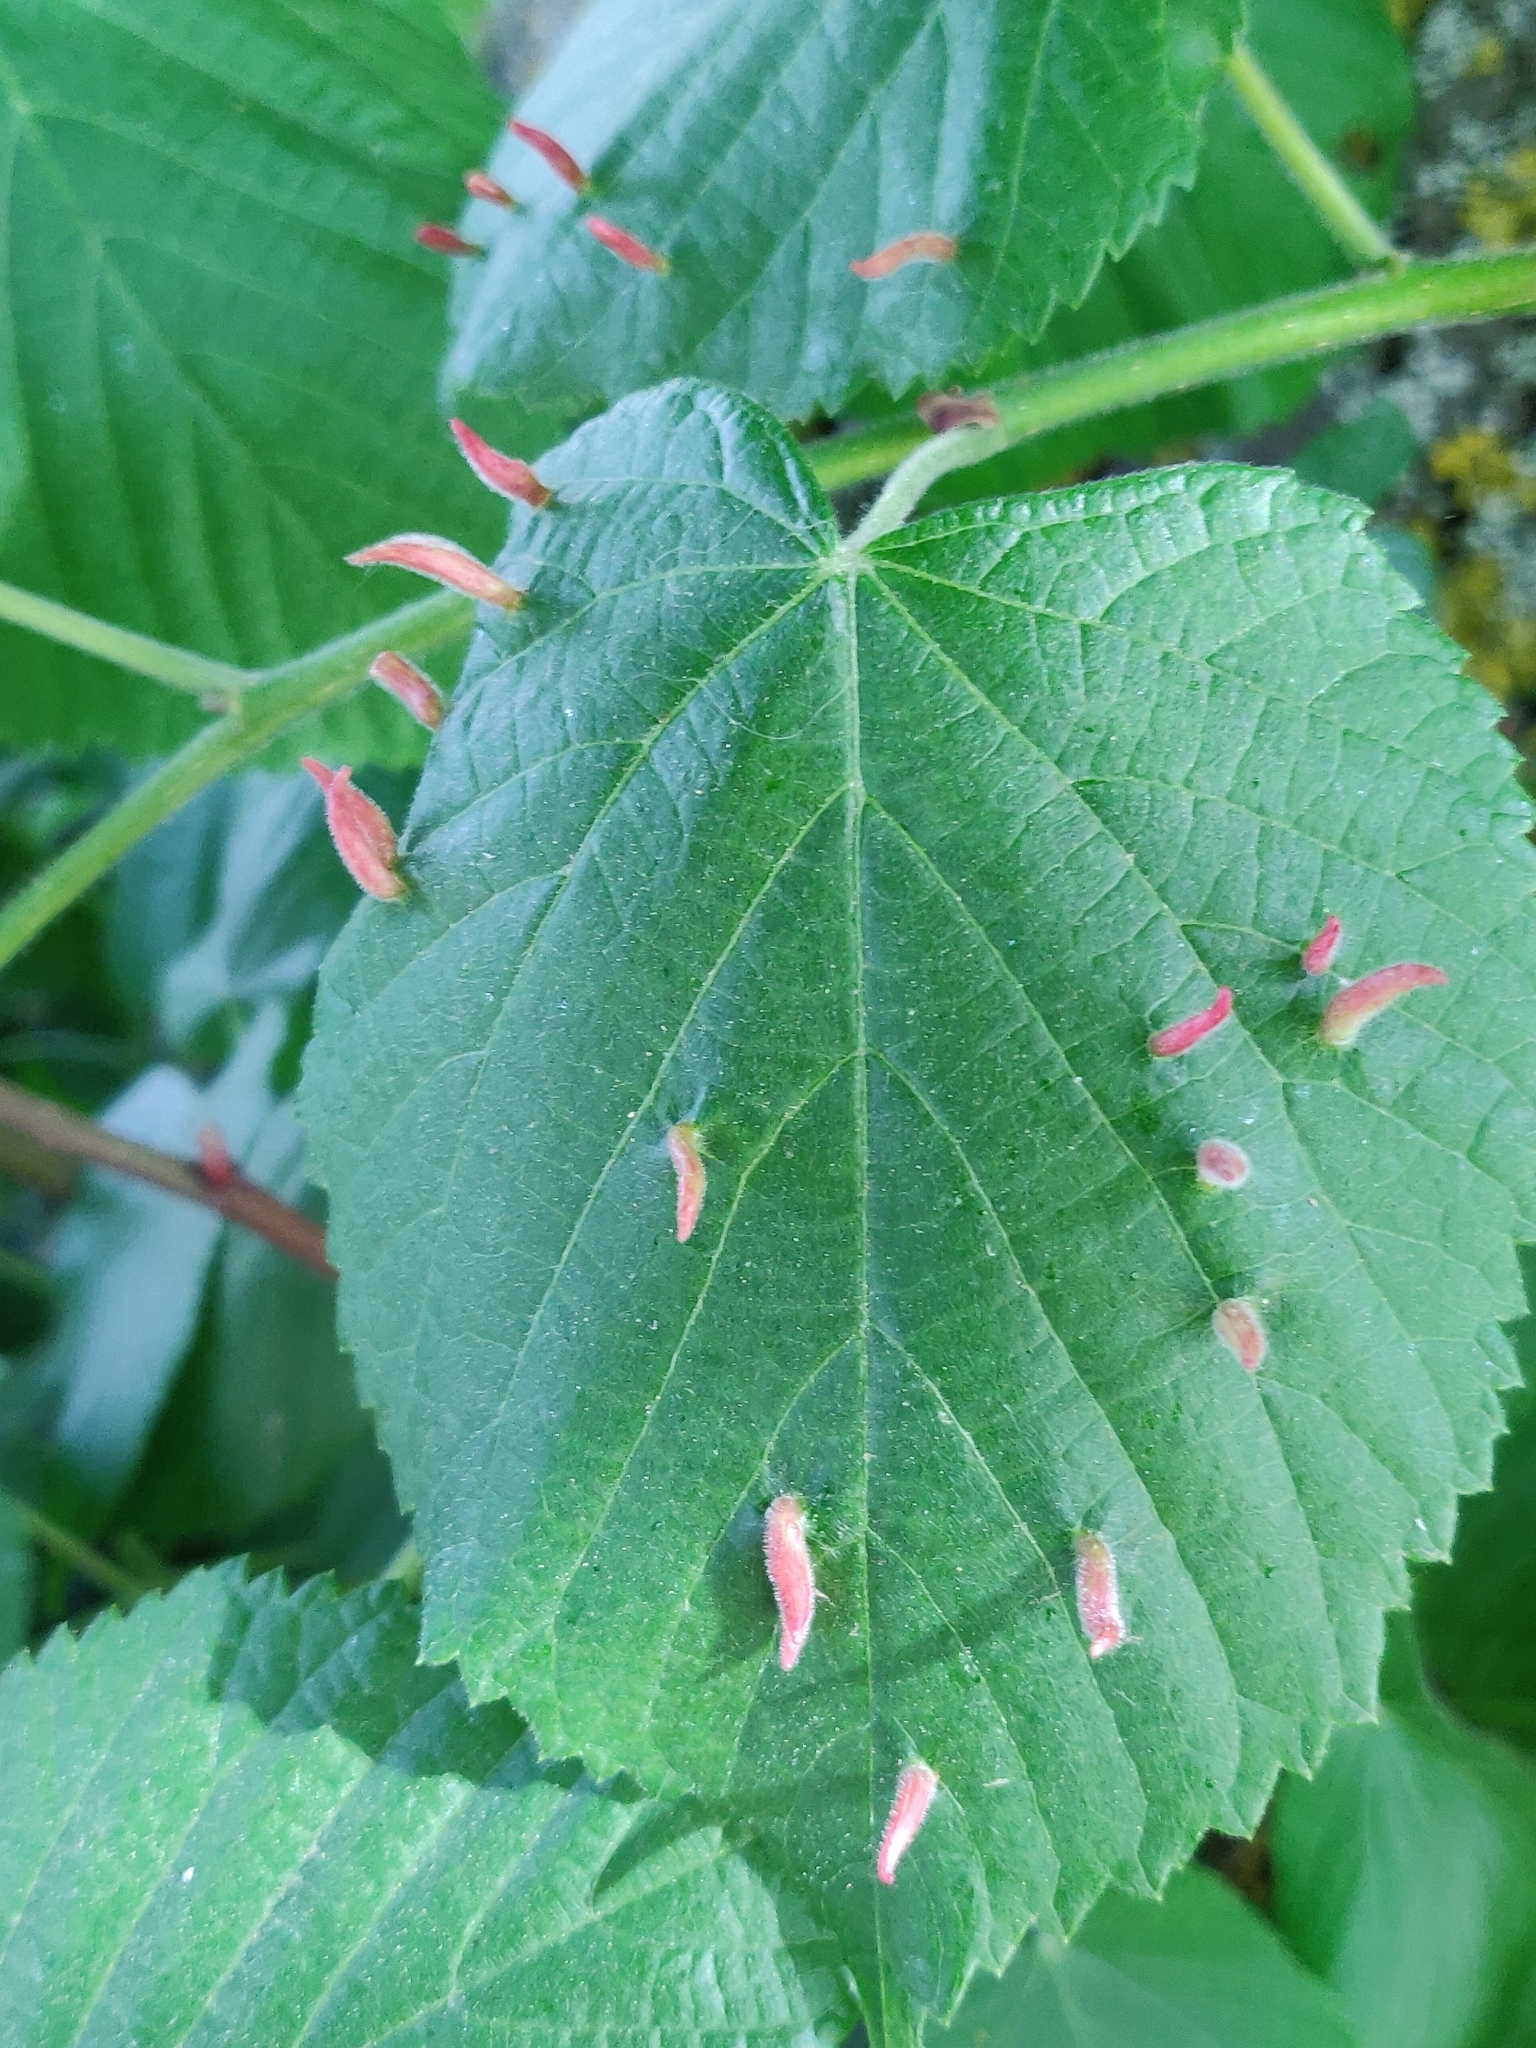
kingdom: Animalia
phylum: Arthropoda
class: Arachnida
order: Trombidiformes
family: Eriophyidae
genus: Eriophyes
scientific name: Eriophyes tiliae
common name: Red nail gall mite
